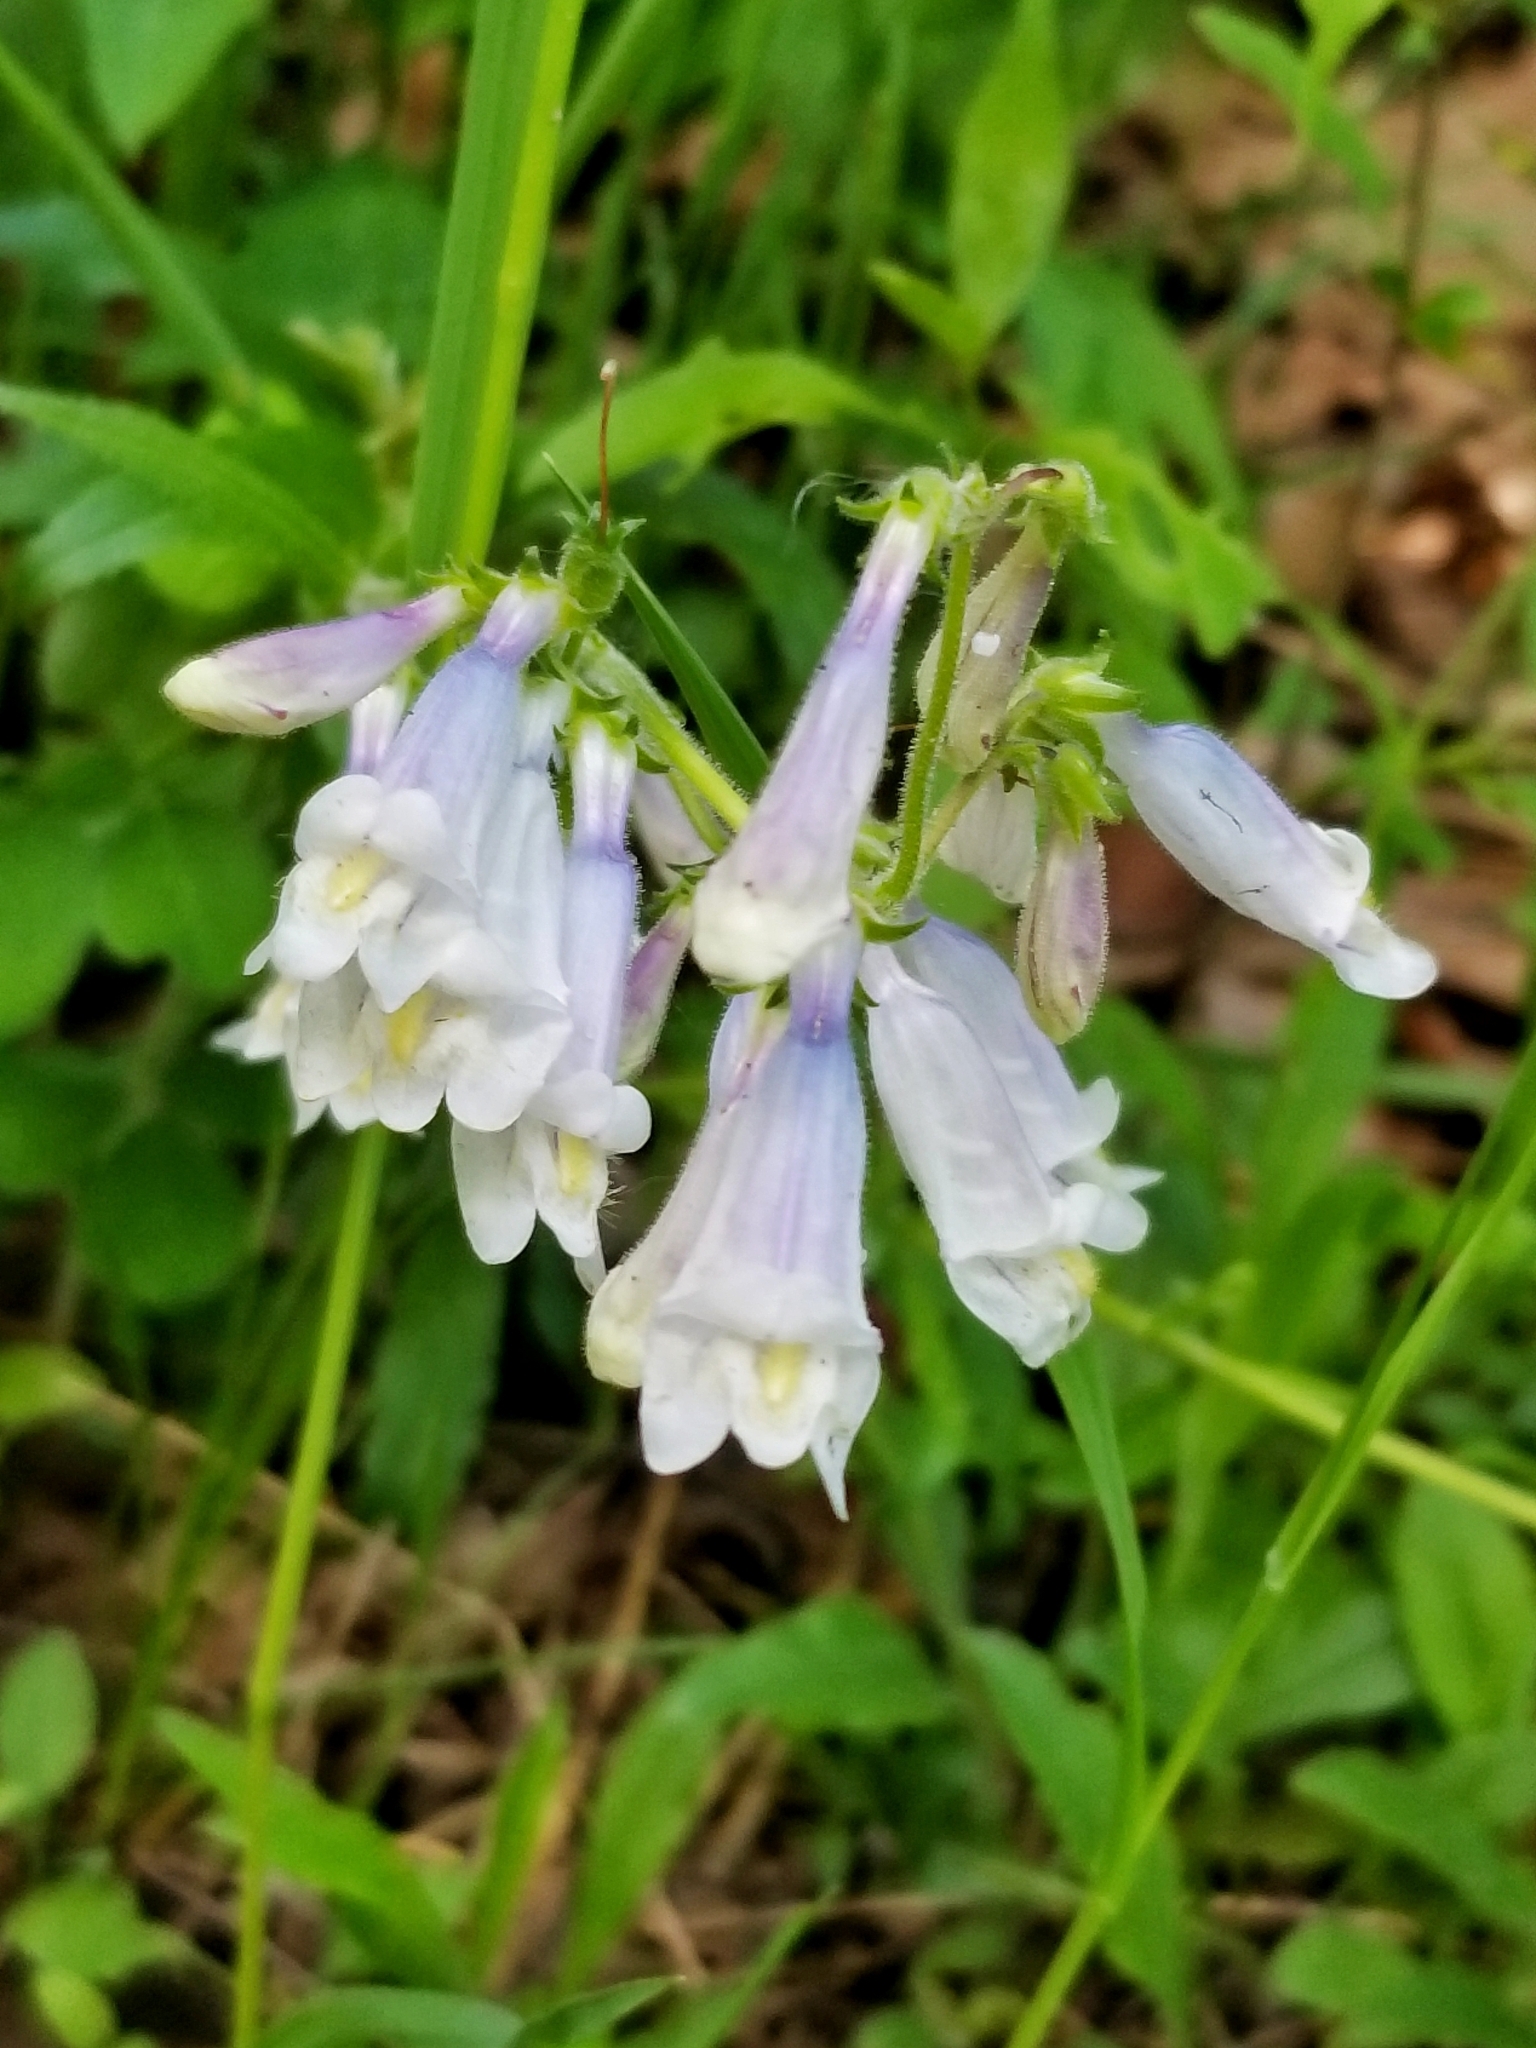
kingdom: Plantae
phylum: Tracheophyta
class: Magnoliopsida
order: Lamiales
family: Plantaginaceae
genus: Penstemon
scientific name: Penstemon hirsutus
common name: Hairy beardtongue
